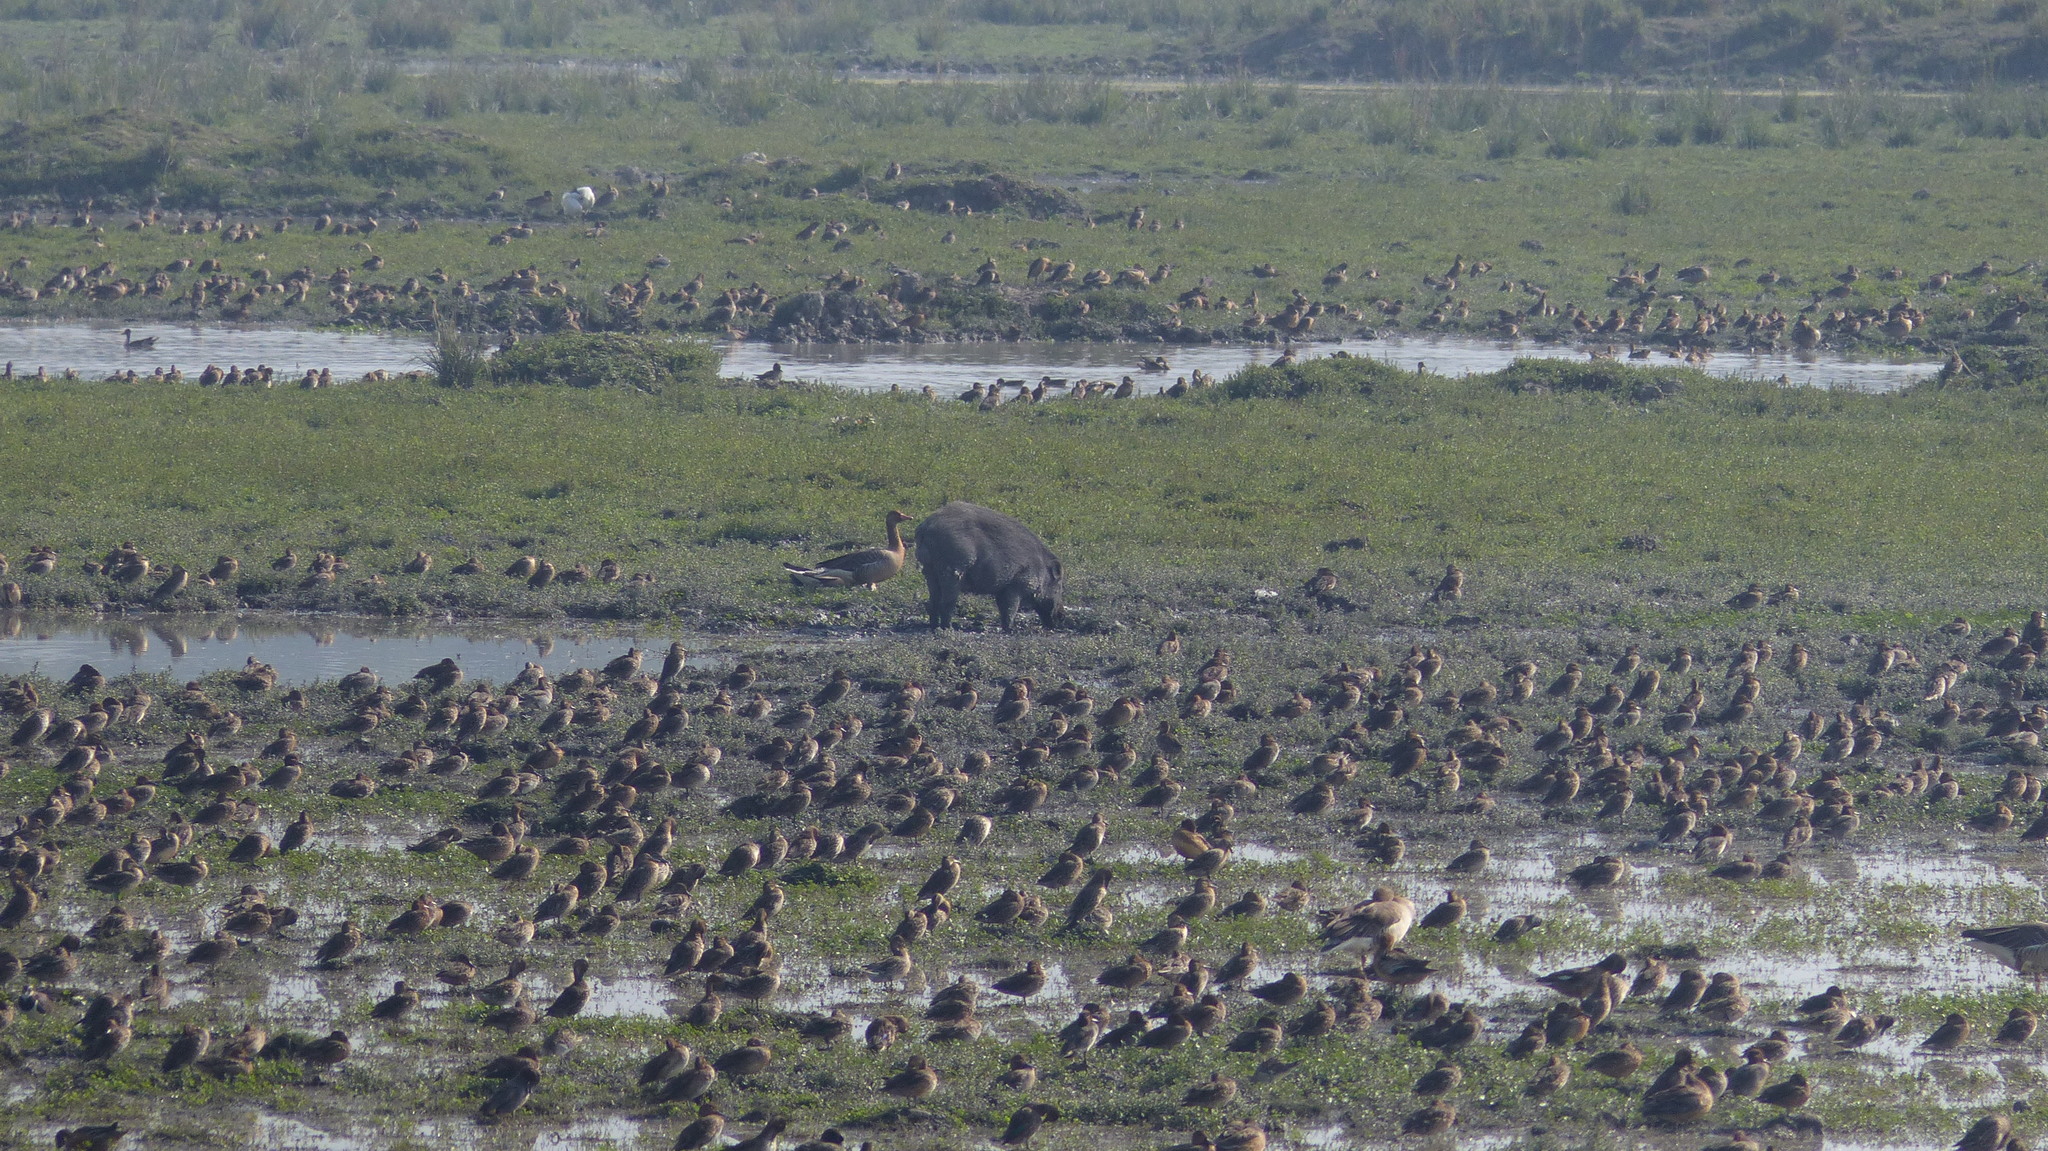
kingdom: Animalia
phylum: Chordata
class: Mammalia
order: Artiodactyla
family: Suidae
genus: Sus
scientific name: Sus scrofa
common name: Wild boar
